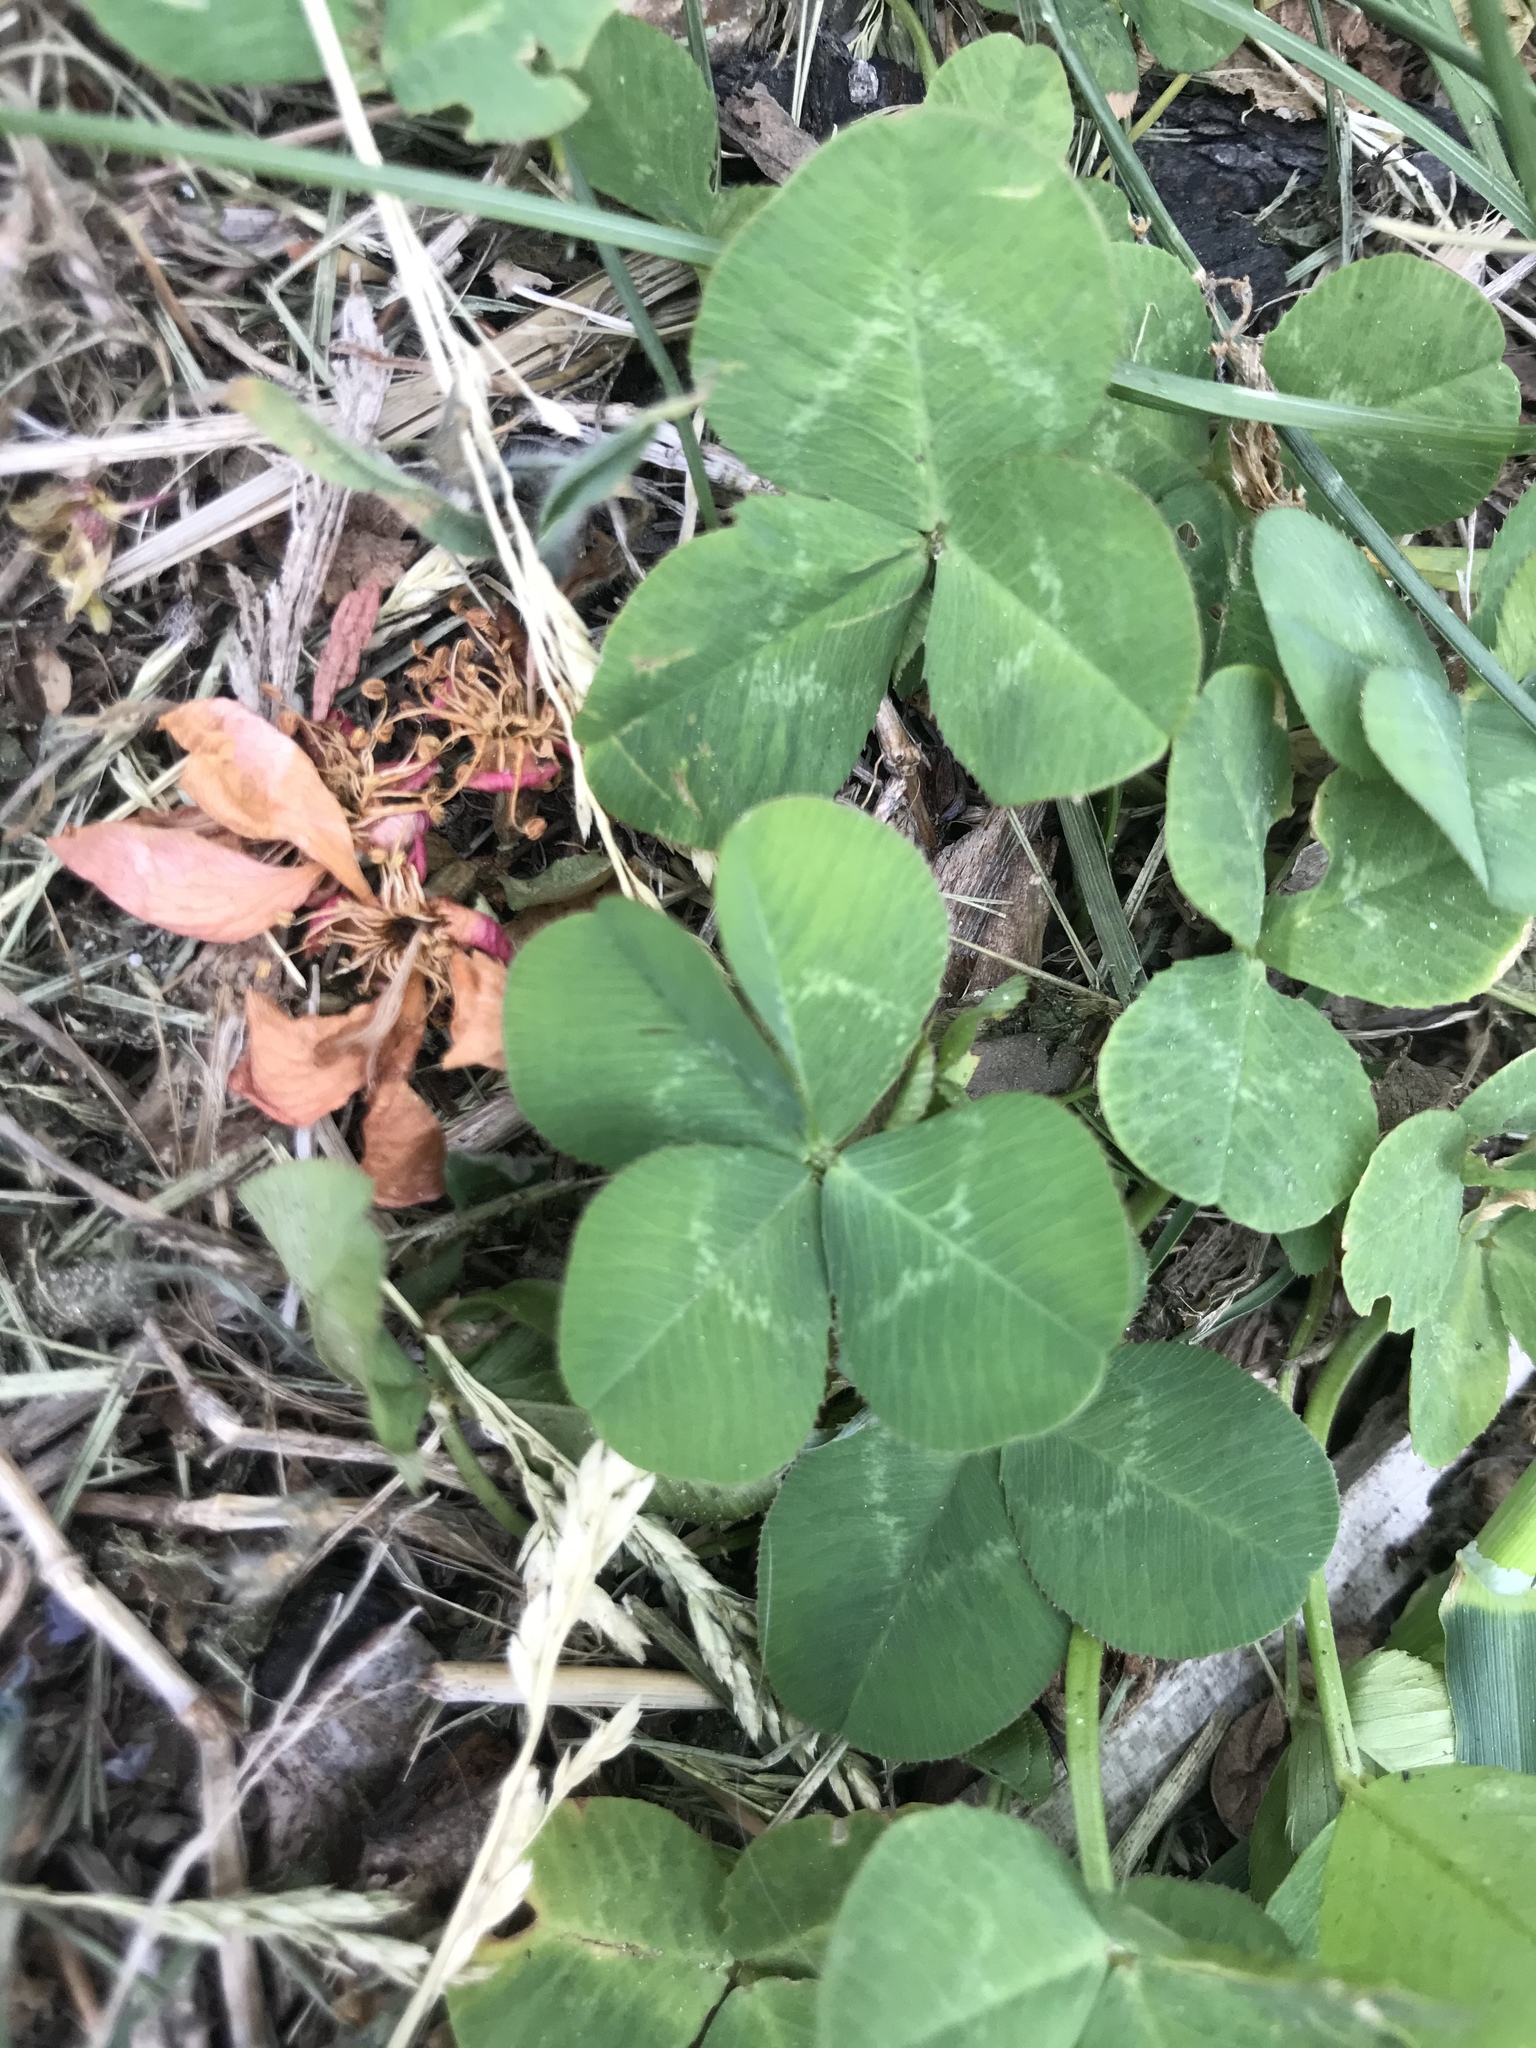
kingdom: Plantae
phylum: Tracheophyta
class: Magnoliopsida
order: Fabales
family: Fabaceae
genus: Trifolium
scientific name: Trifolium repens
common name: White clover
